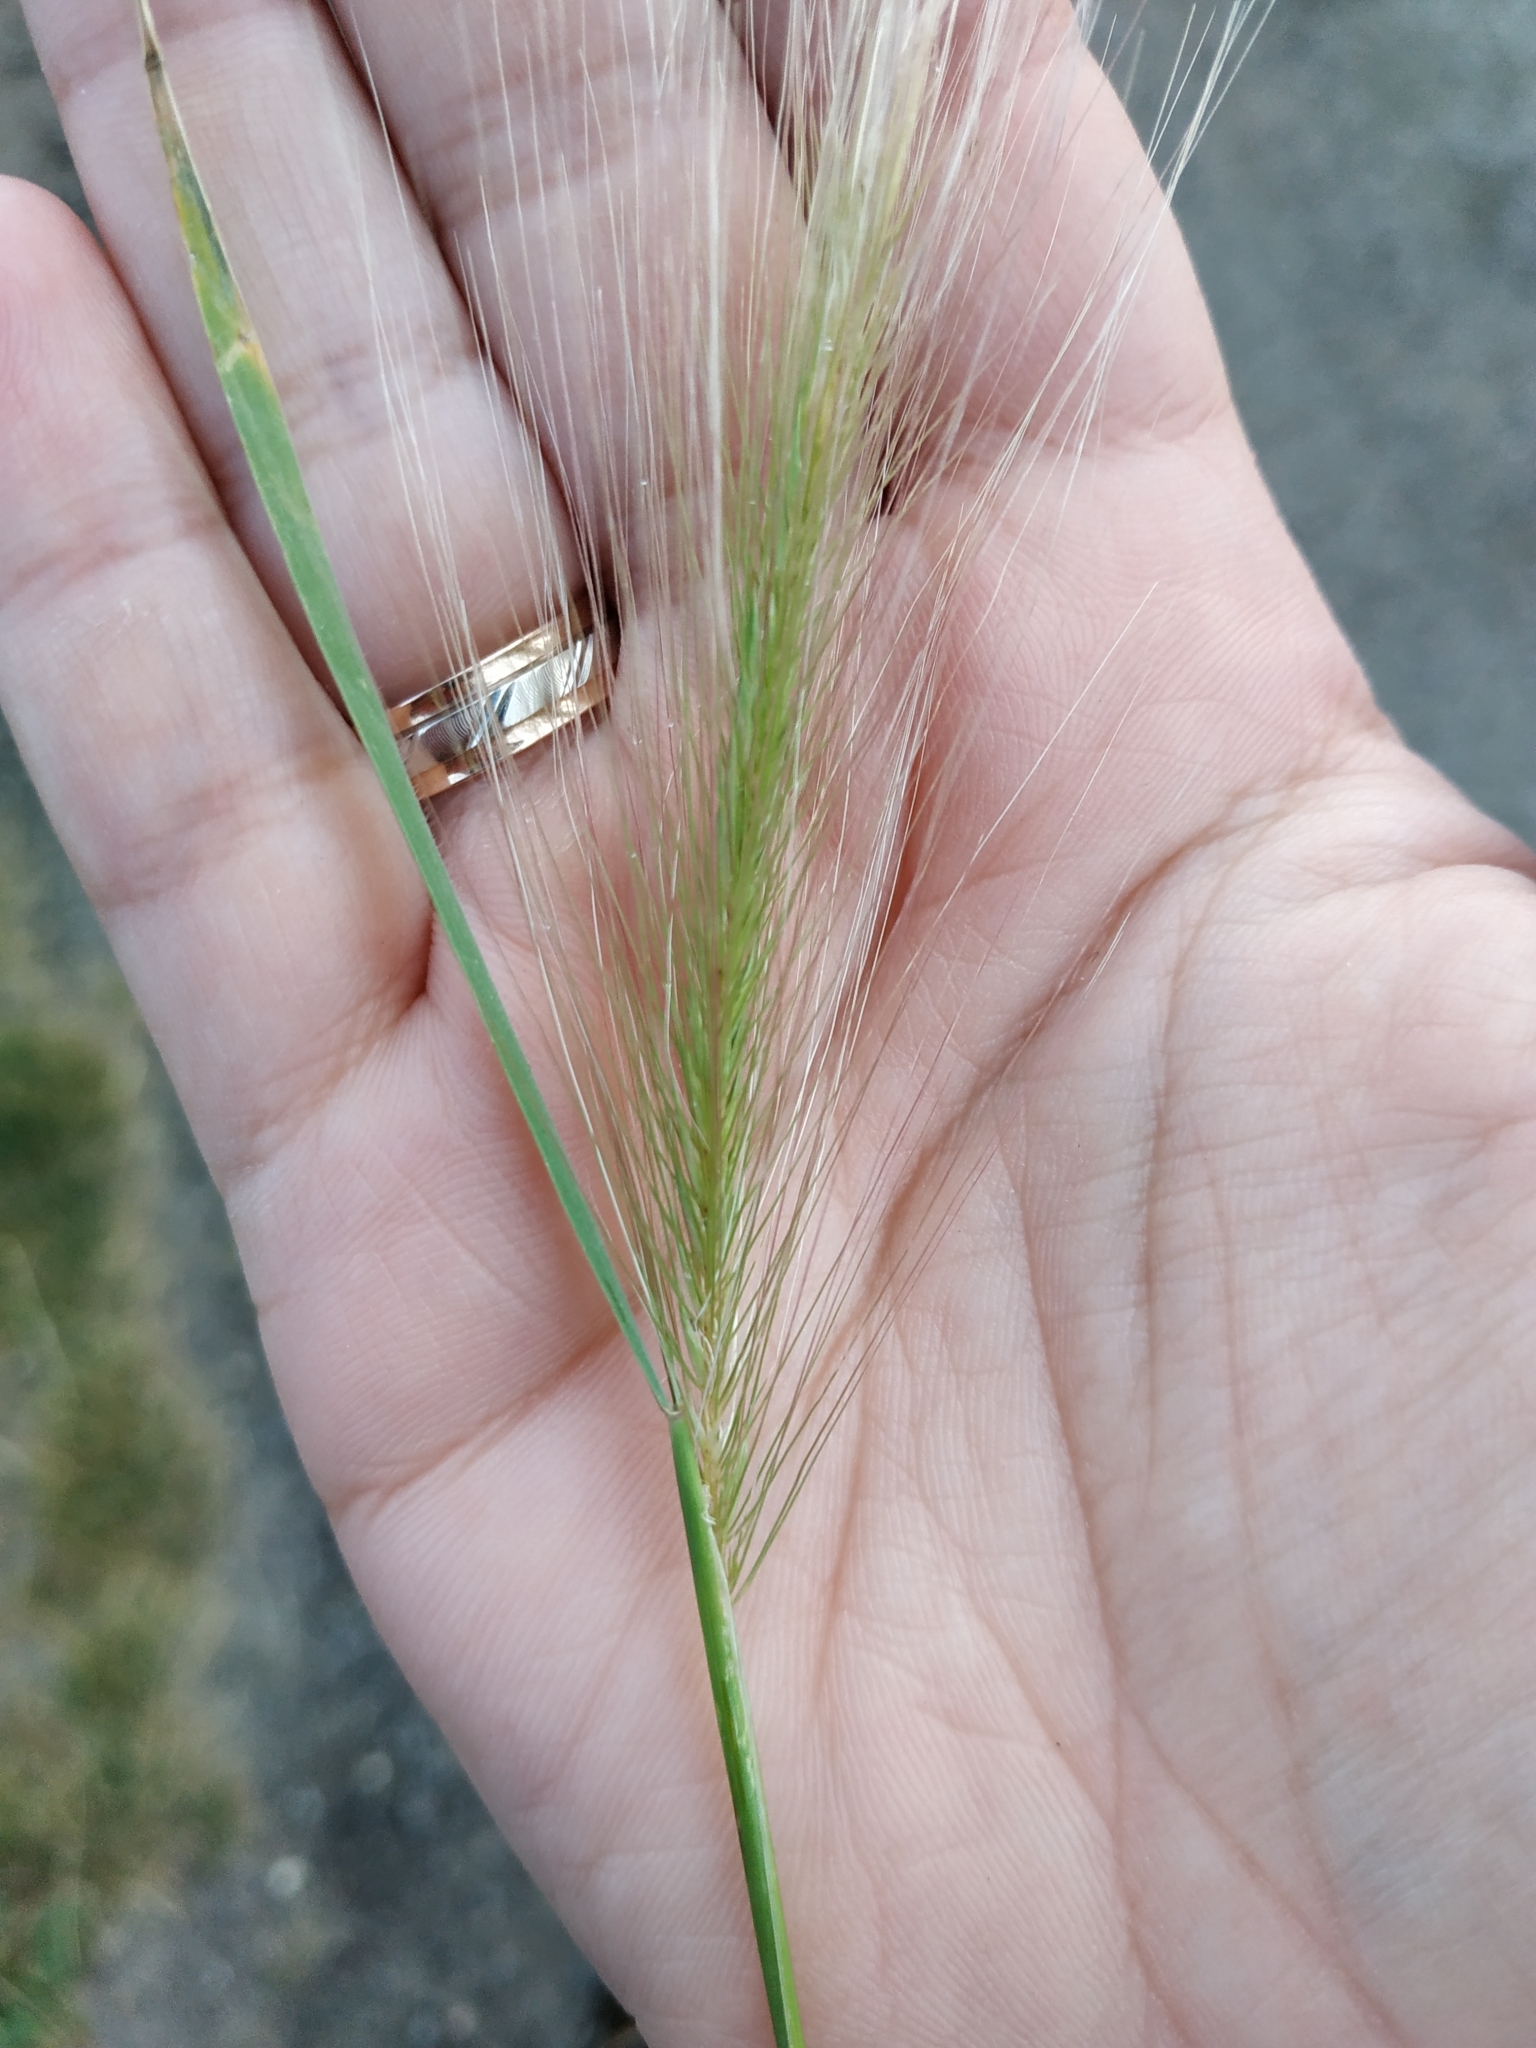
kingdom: Plantae
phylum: Tracheophyta
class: Liliopsida
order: Poales
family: Poaceae
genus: Hordeum
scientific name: Hordeum jubatum
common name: Foxtail barley
